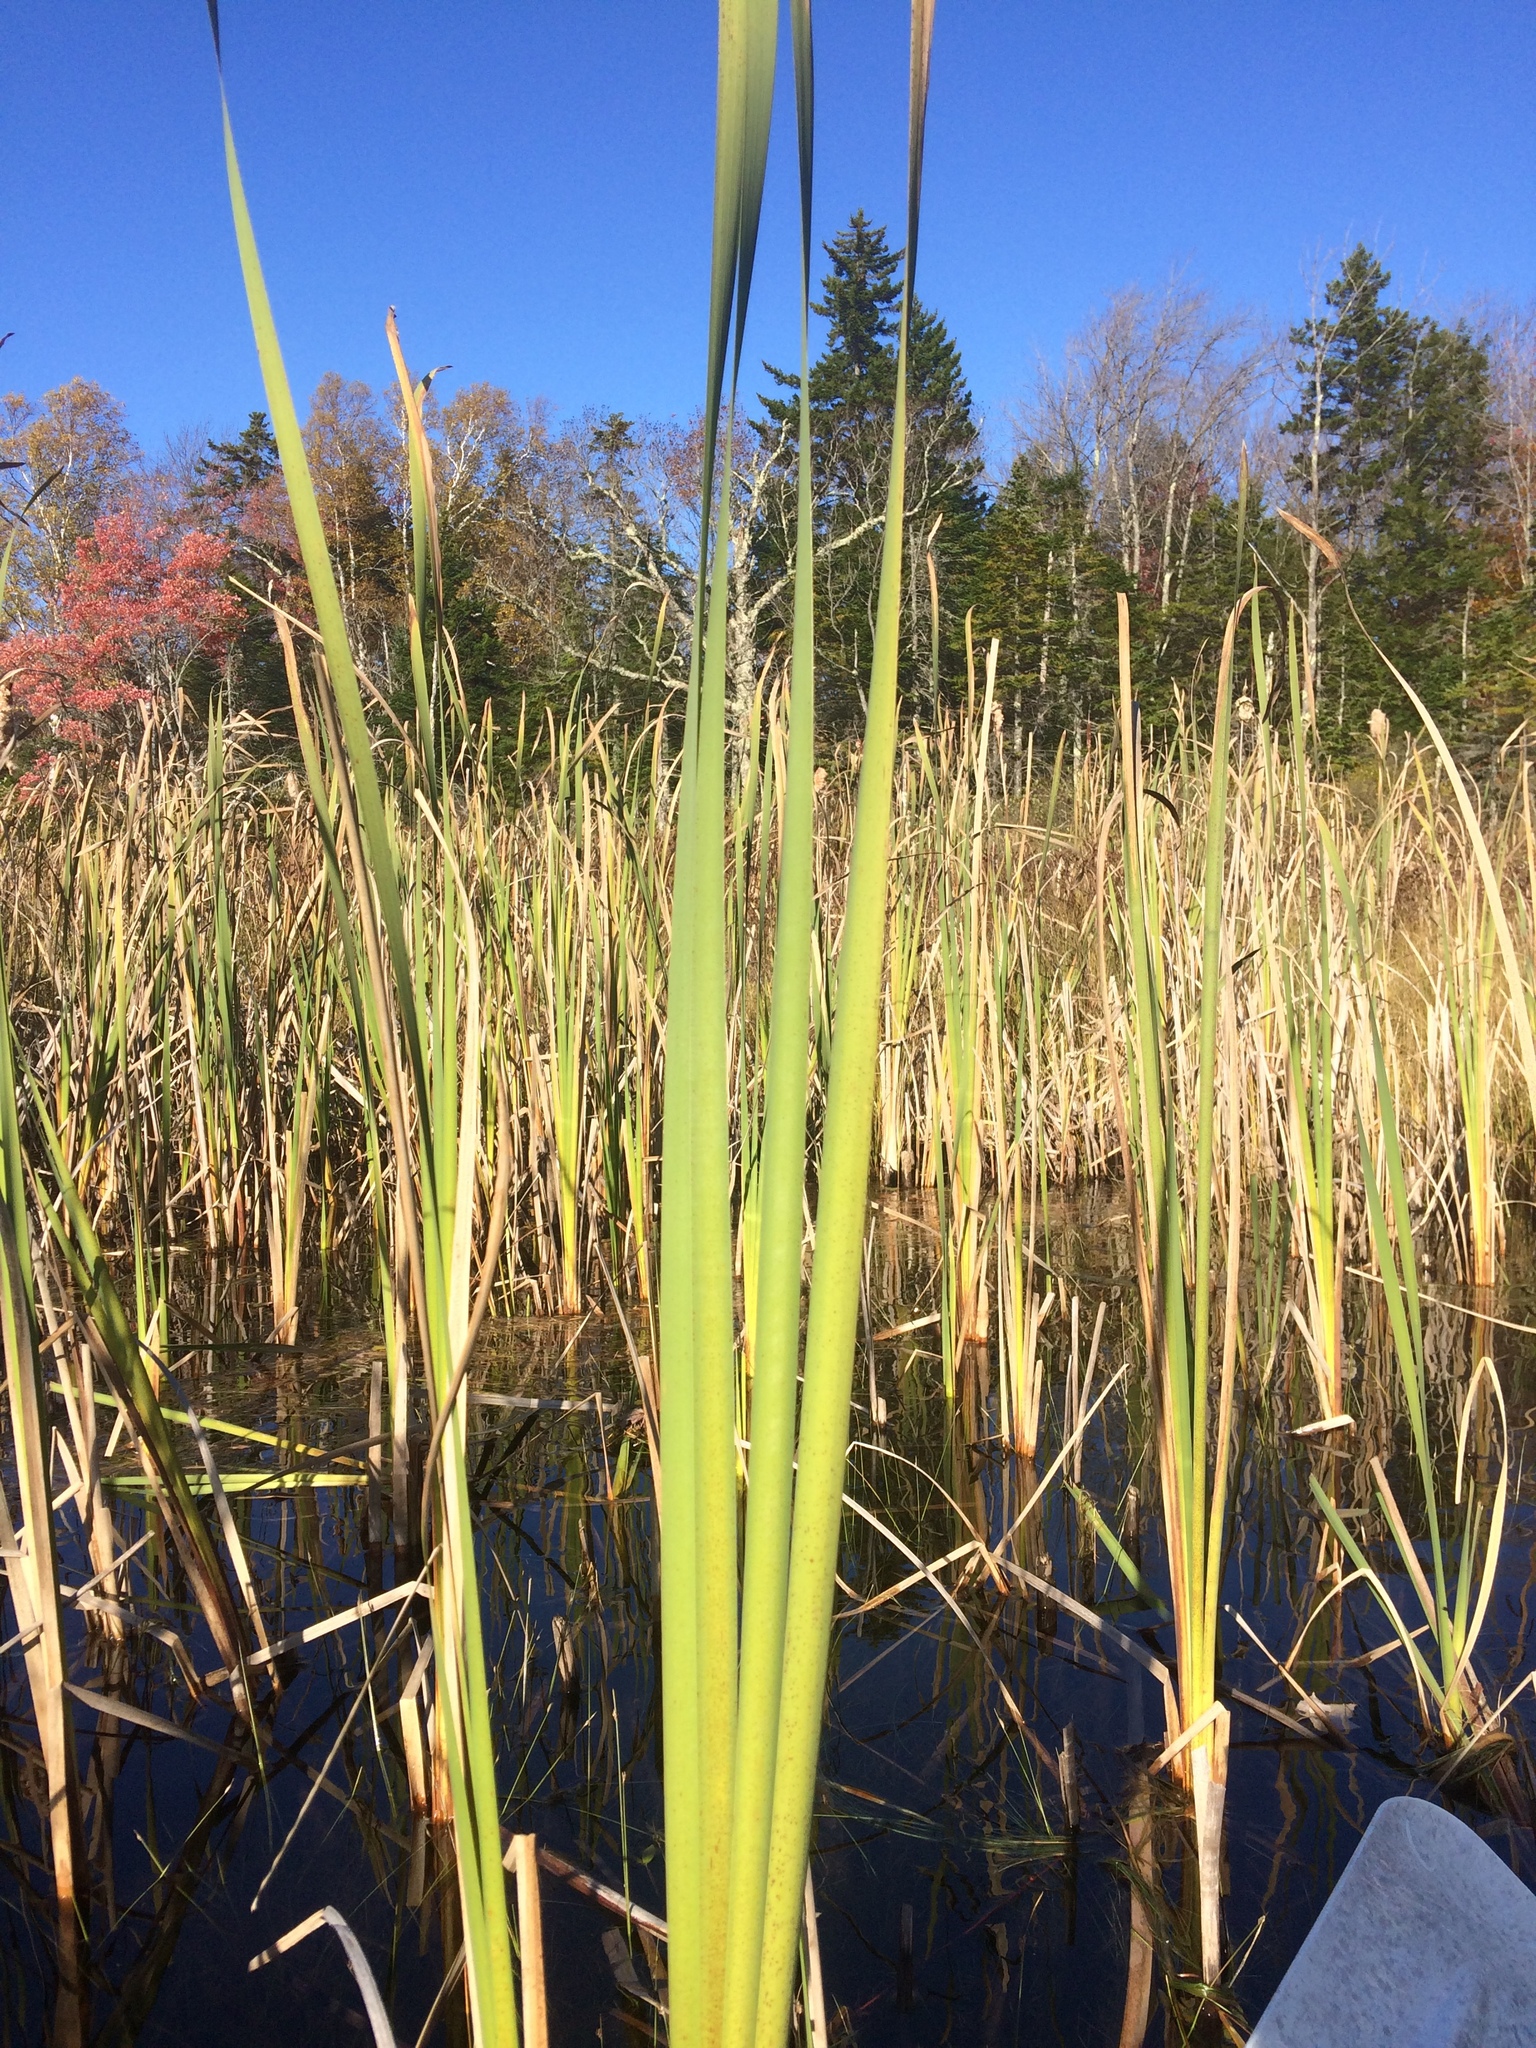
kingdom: Plantae
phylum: Tracheophyta
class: Liliopsida
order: Poales
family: Typhaceae
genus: Typha
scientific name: Typha latifolia
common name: Broadleaf cattail
